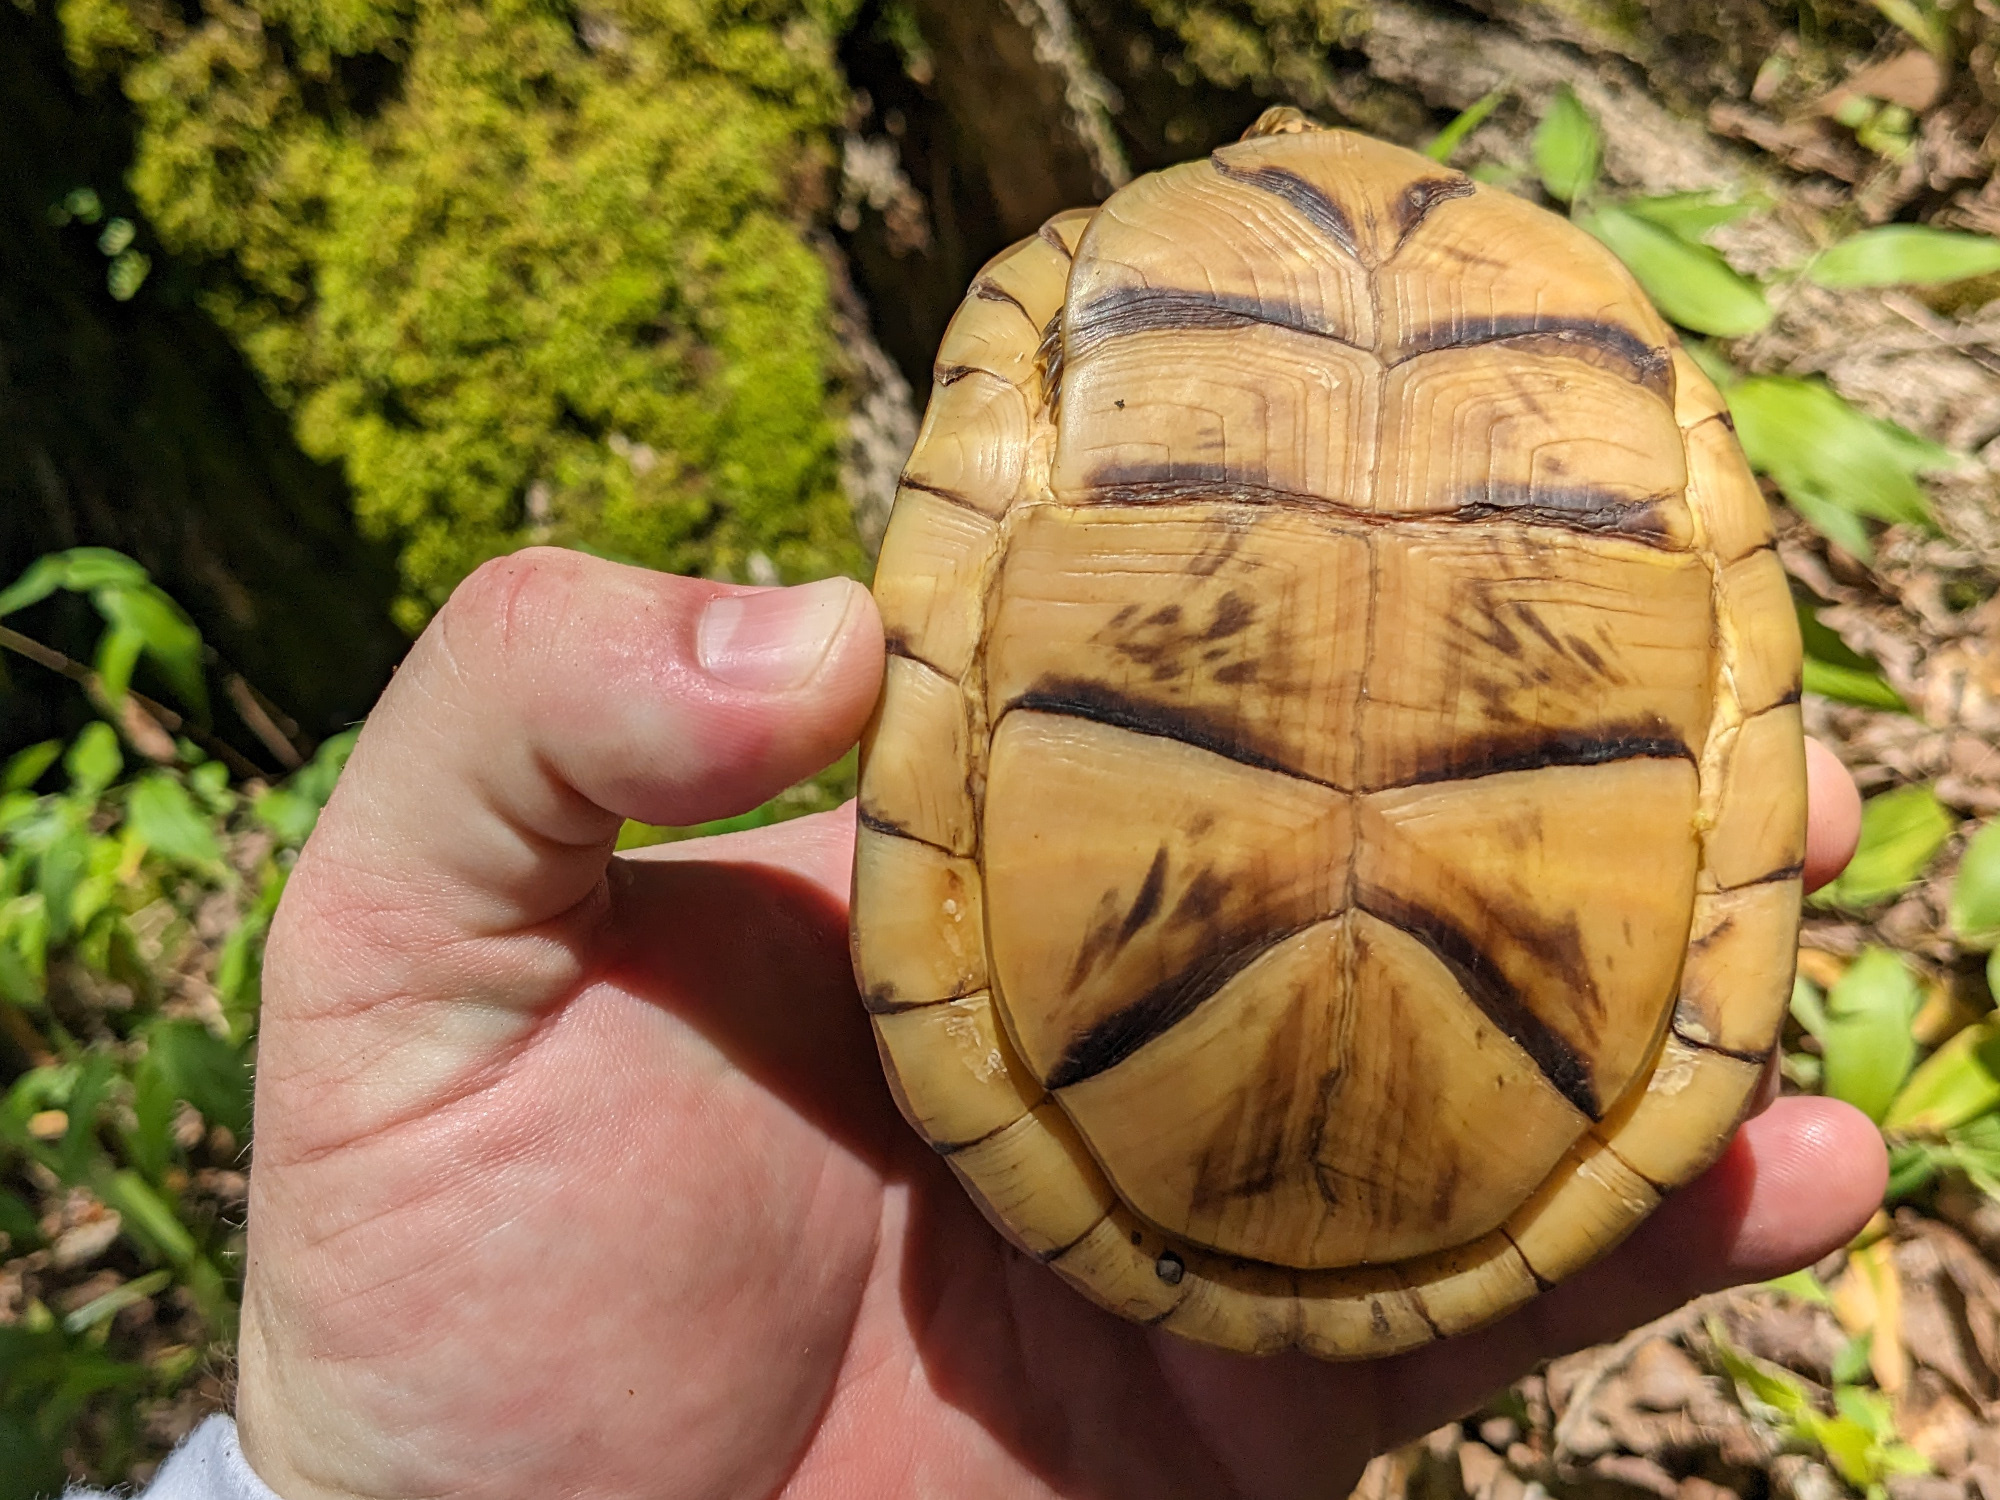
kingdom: Animalia
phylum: Chordata
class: Testudines
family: Emydidae
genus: Terrapene
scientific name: Terrapene carolina
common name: Common box turtle
